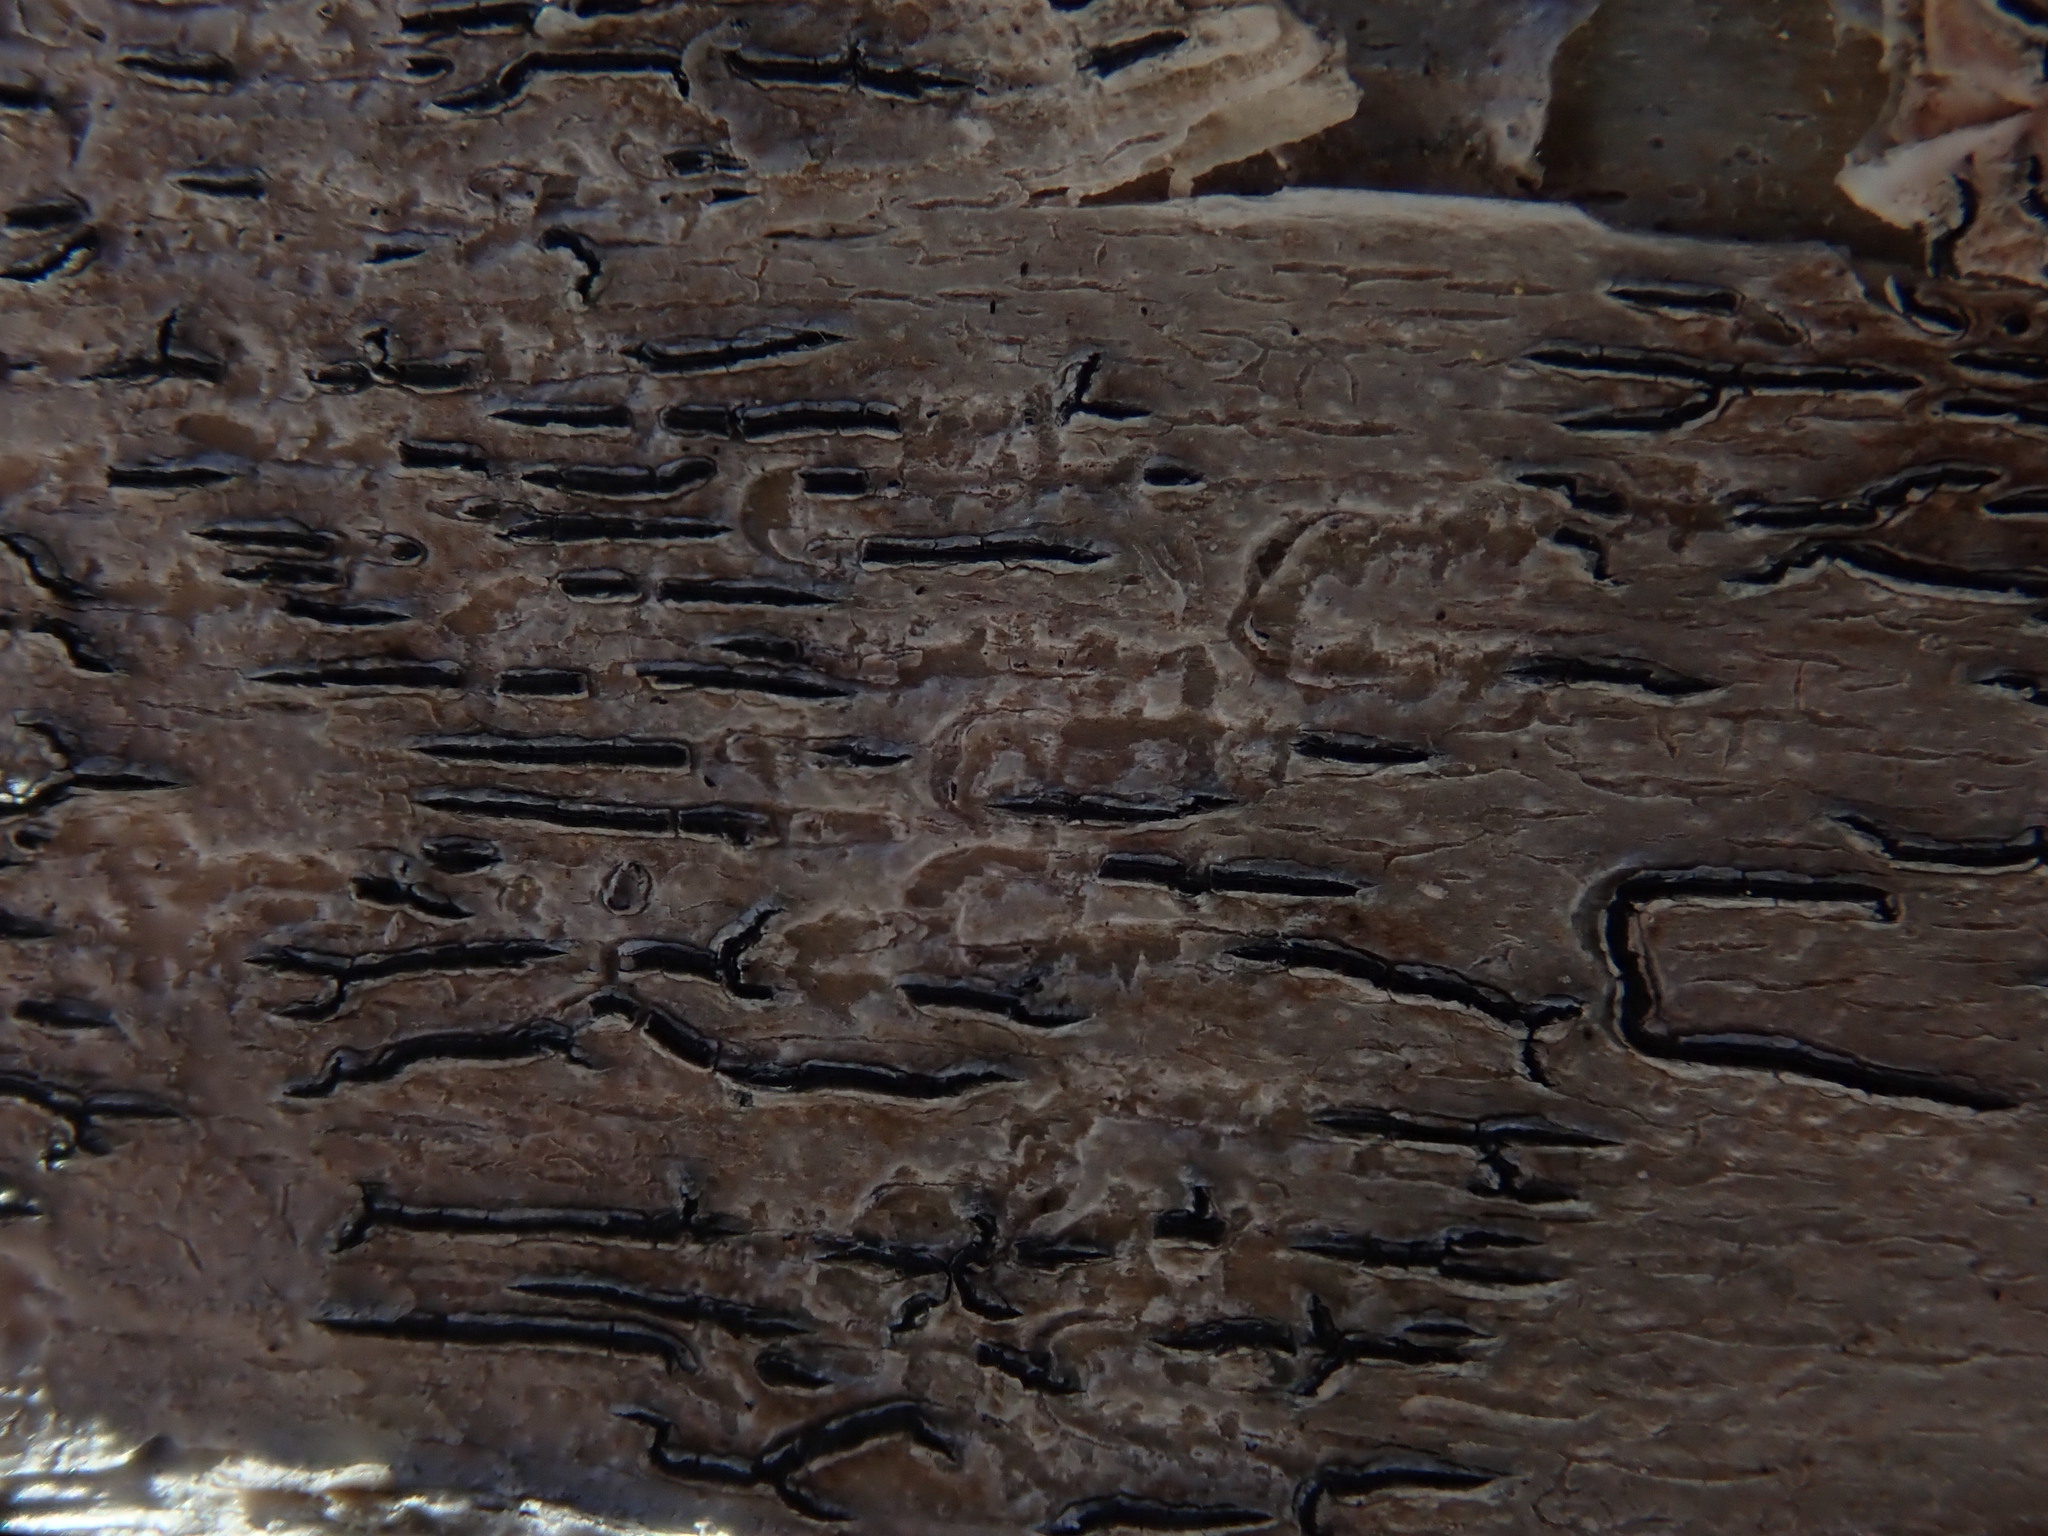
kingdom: Fungi
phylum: Ascomycota
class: Lecanoromycetes
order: Ostropales
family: Graphidaceae
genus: Graphis
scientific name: Graphis scripta
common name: Script lichen
